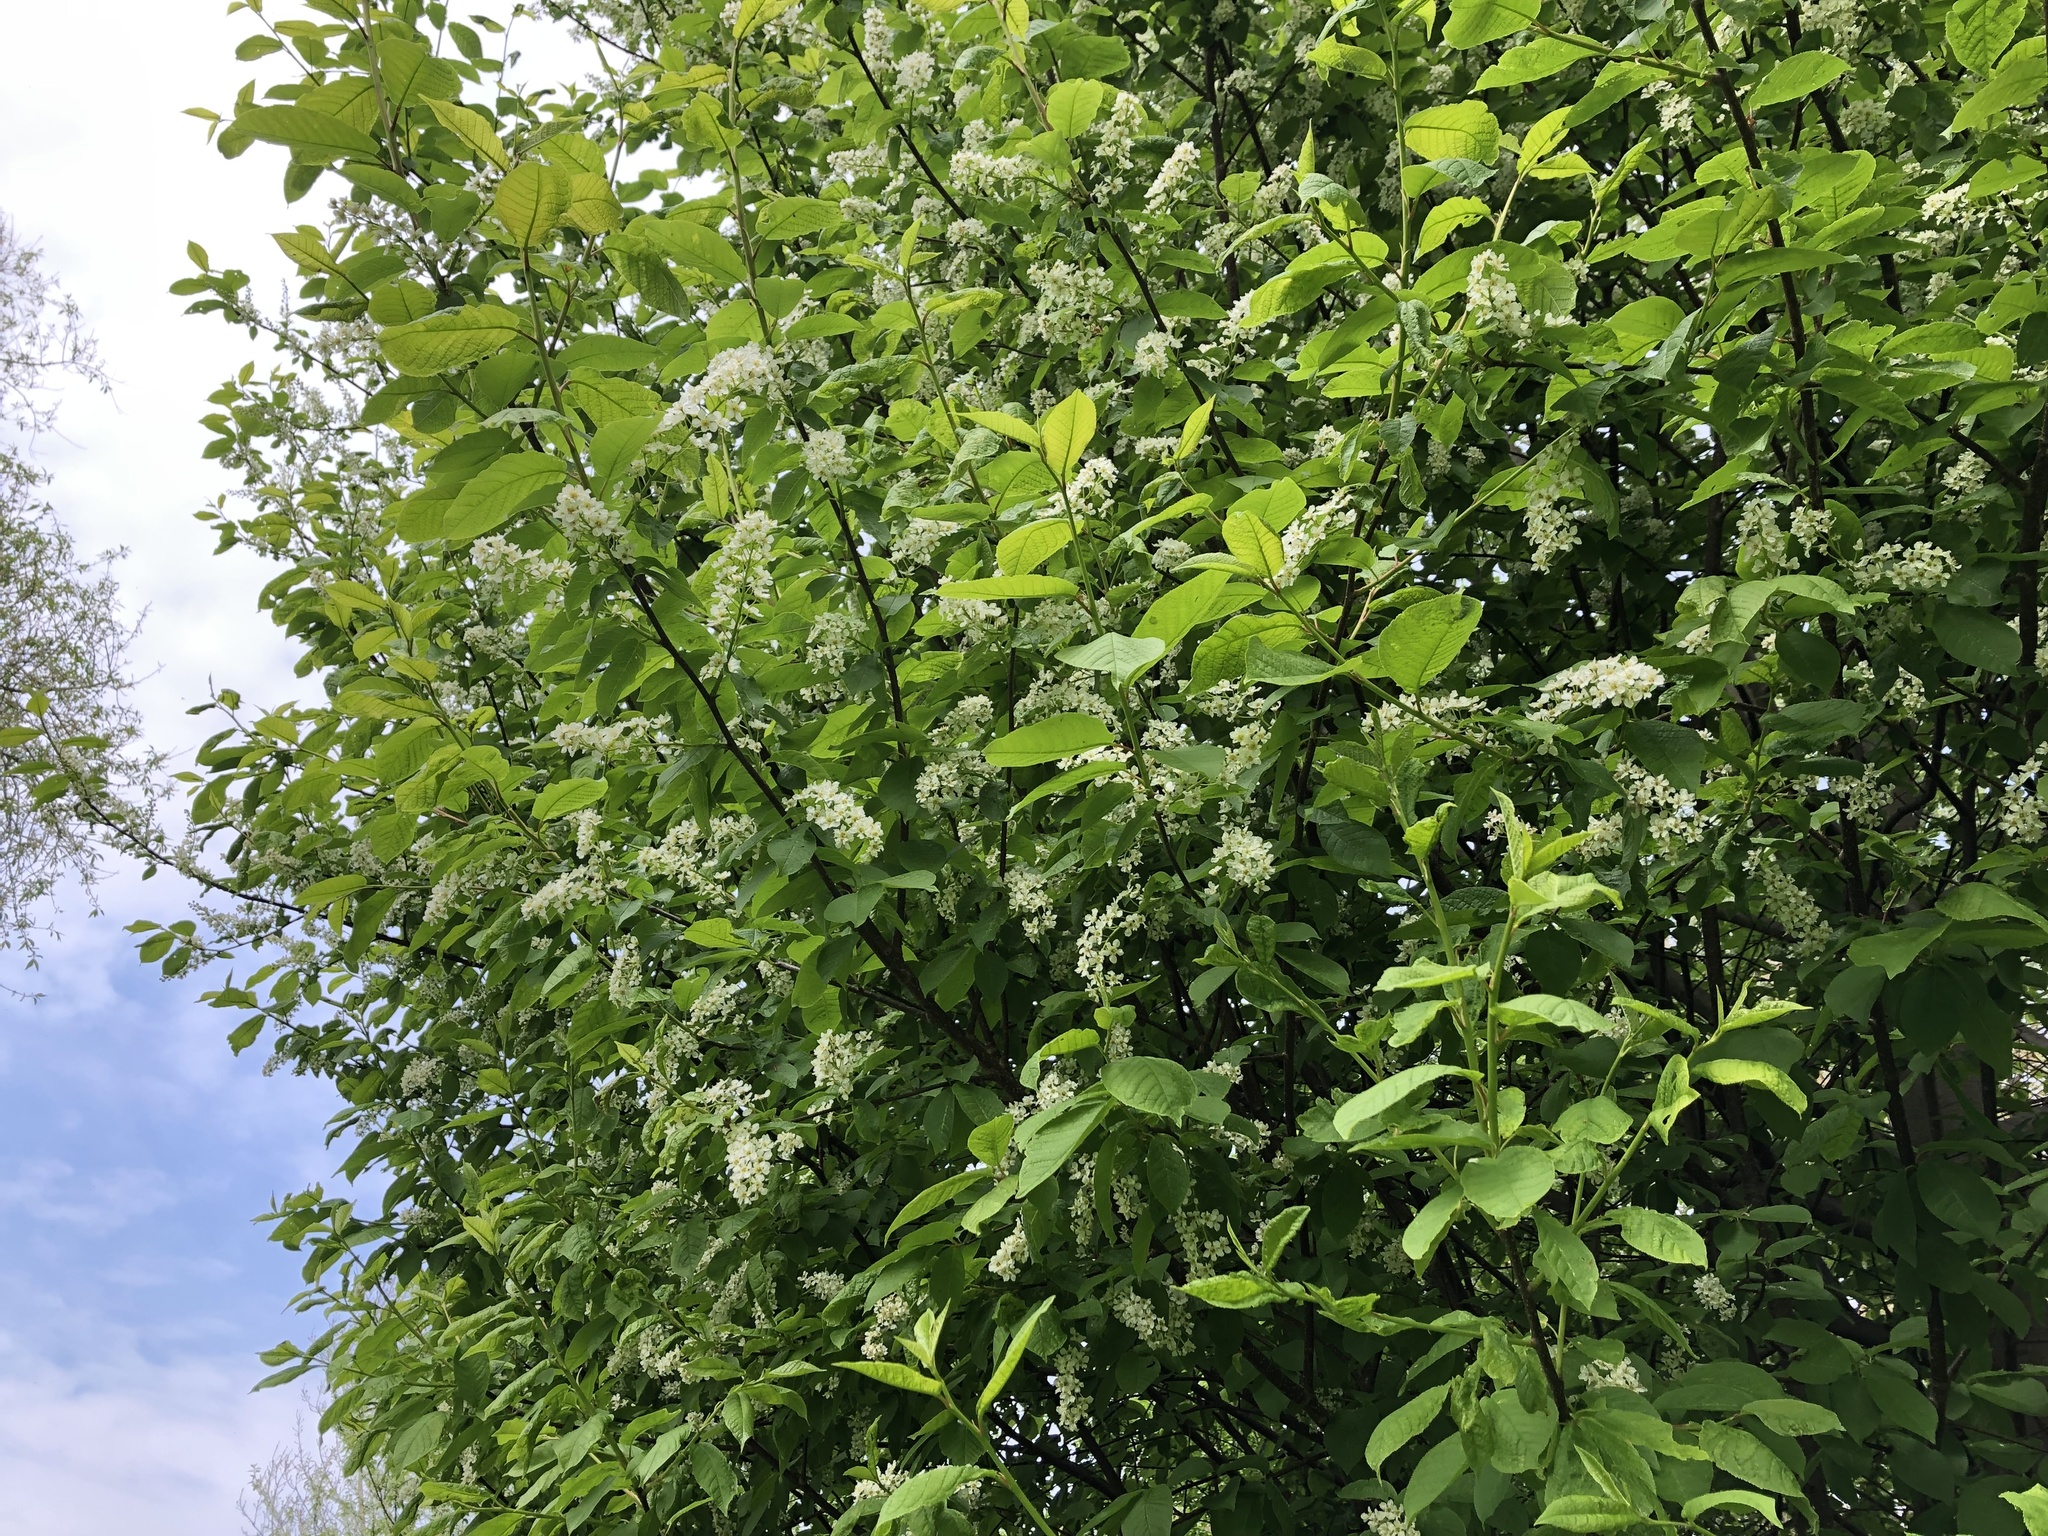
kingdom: Plantae
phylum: Tracheophyta
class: Magnoliopsida
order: Rosales
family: Rosaceae
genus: Prunus
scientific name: Prunus padus
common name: Bird cherry
